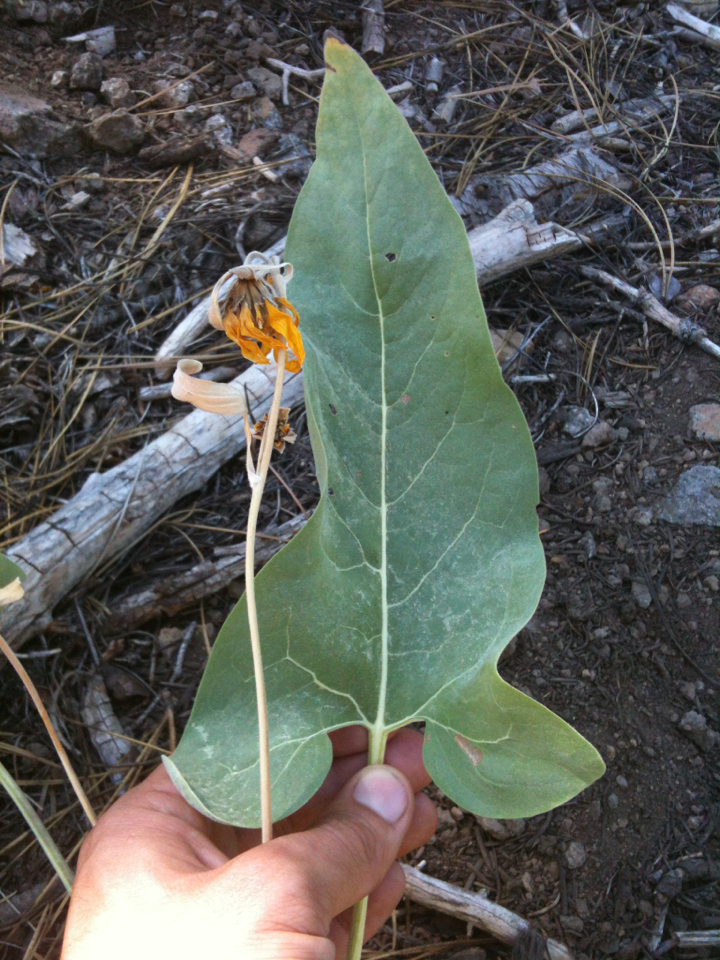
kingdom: Plantae
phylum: Tracheophyta
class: Magnoliopsida
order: Asterales
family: Asteraceae
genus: Wyethia
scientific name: Wyethia sagittata
